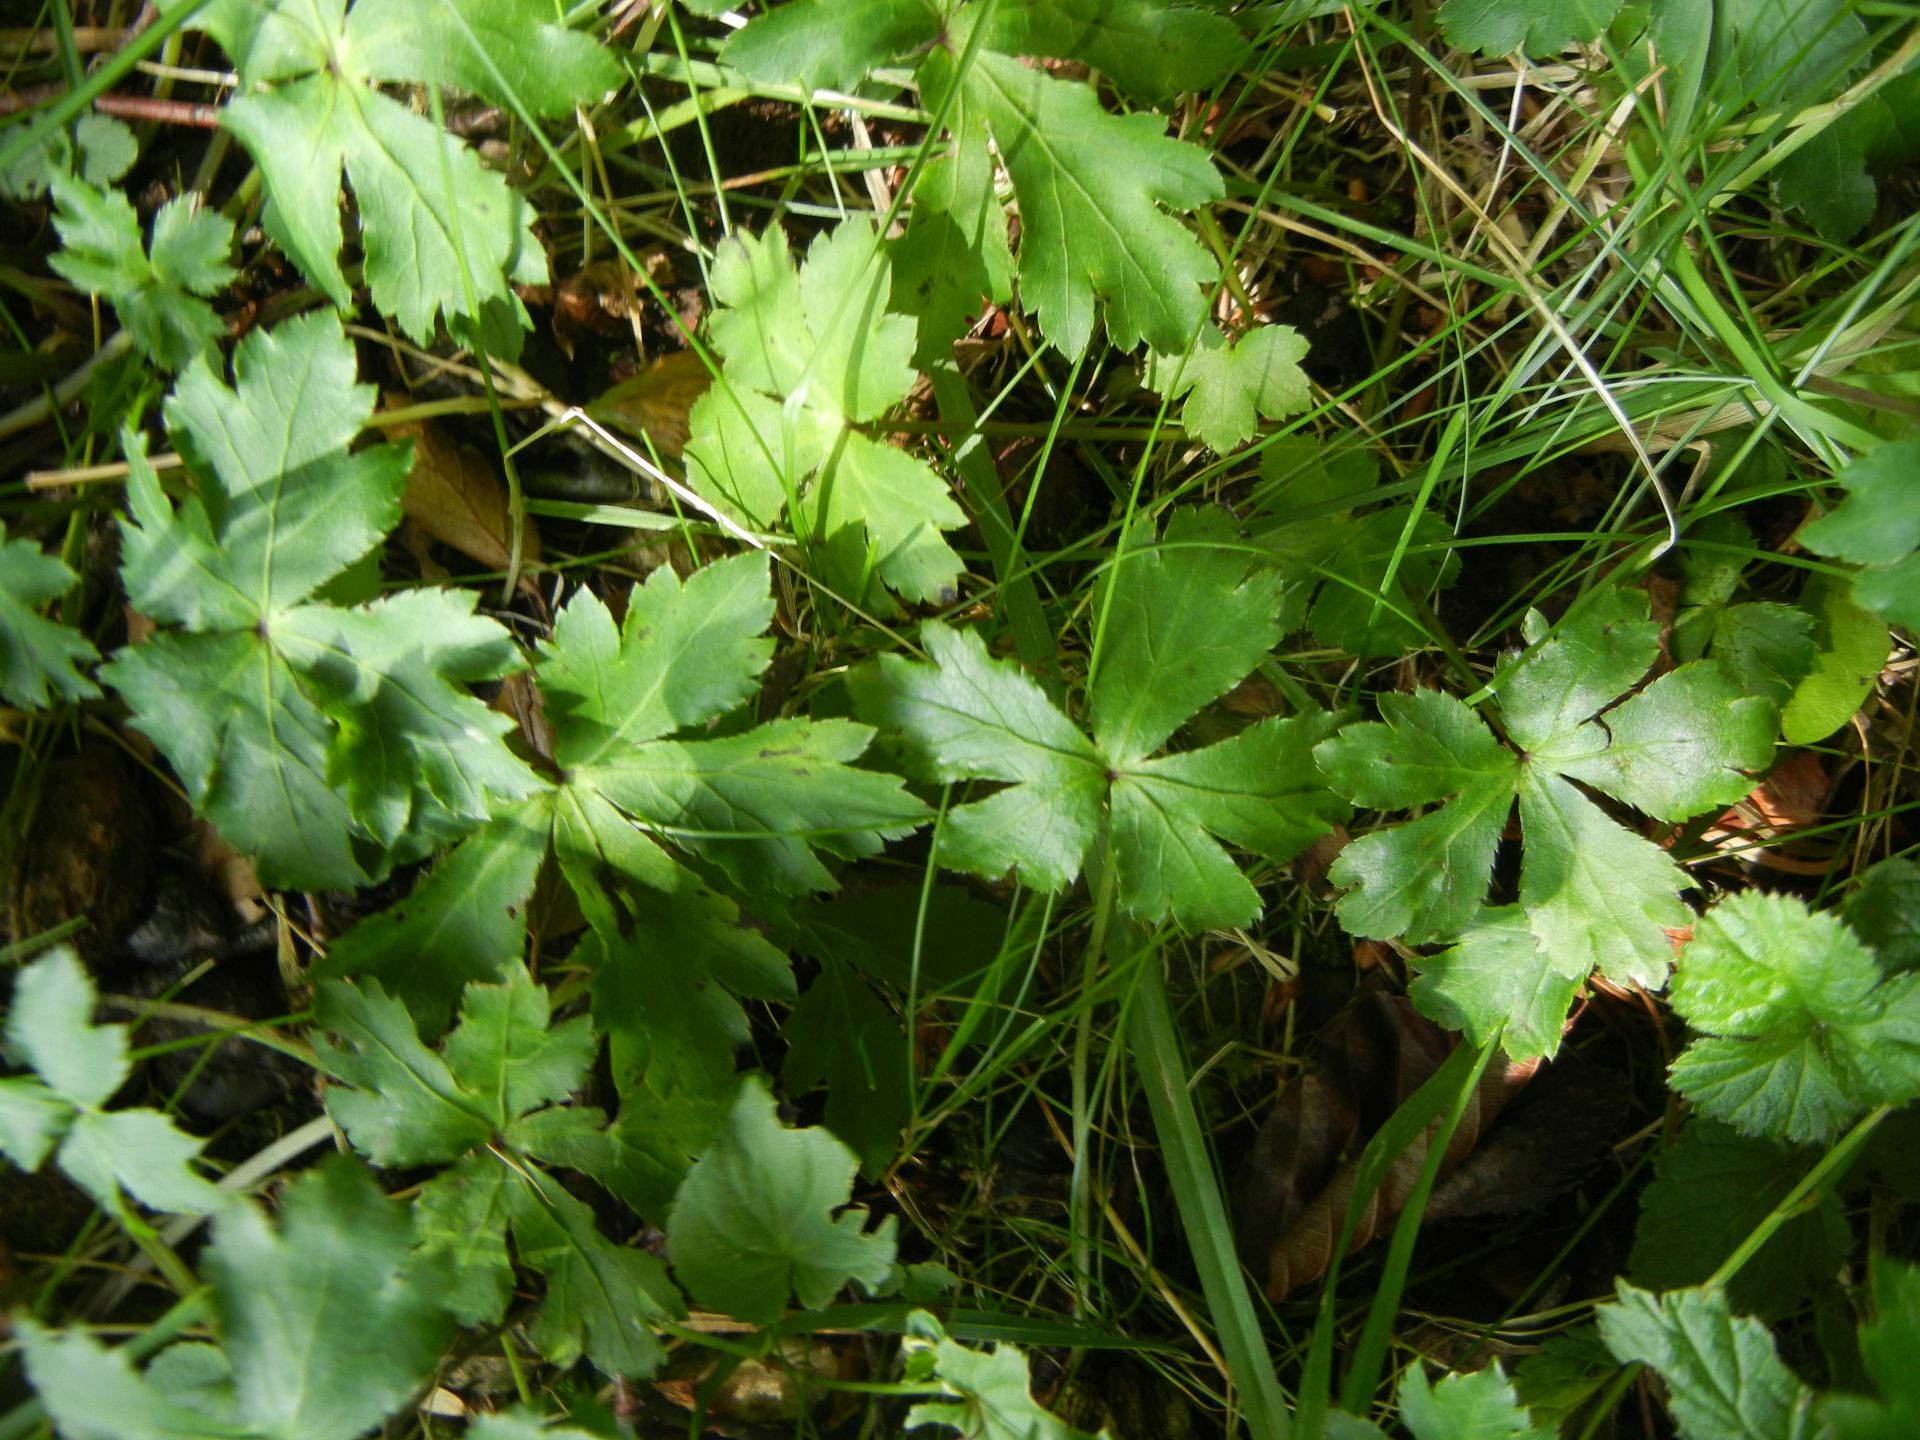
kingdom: Plantae
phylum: Tracheophyta
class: Magnoliopsida
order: Apiales
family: Apiaceae
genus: Sanicula
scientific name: Sanicula europaea
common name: Sanicle
